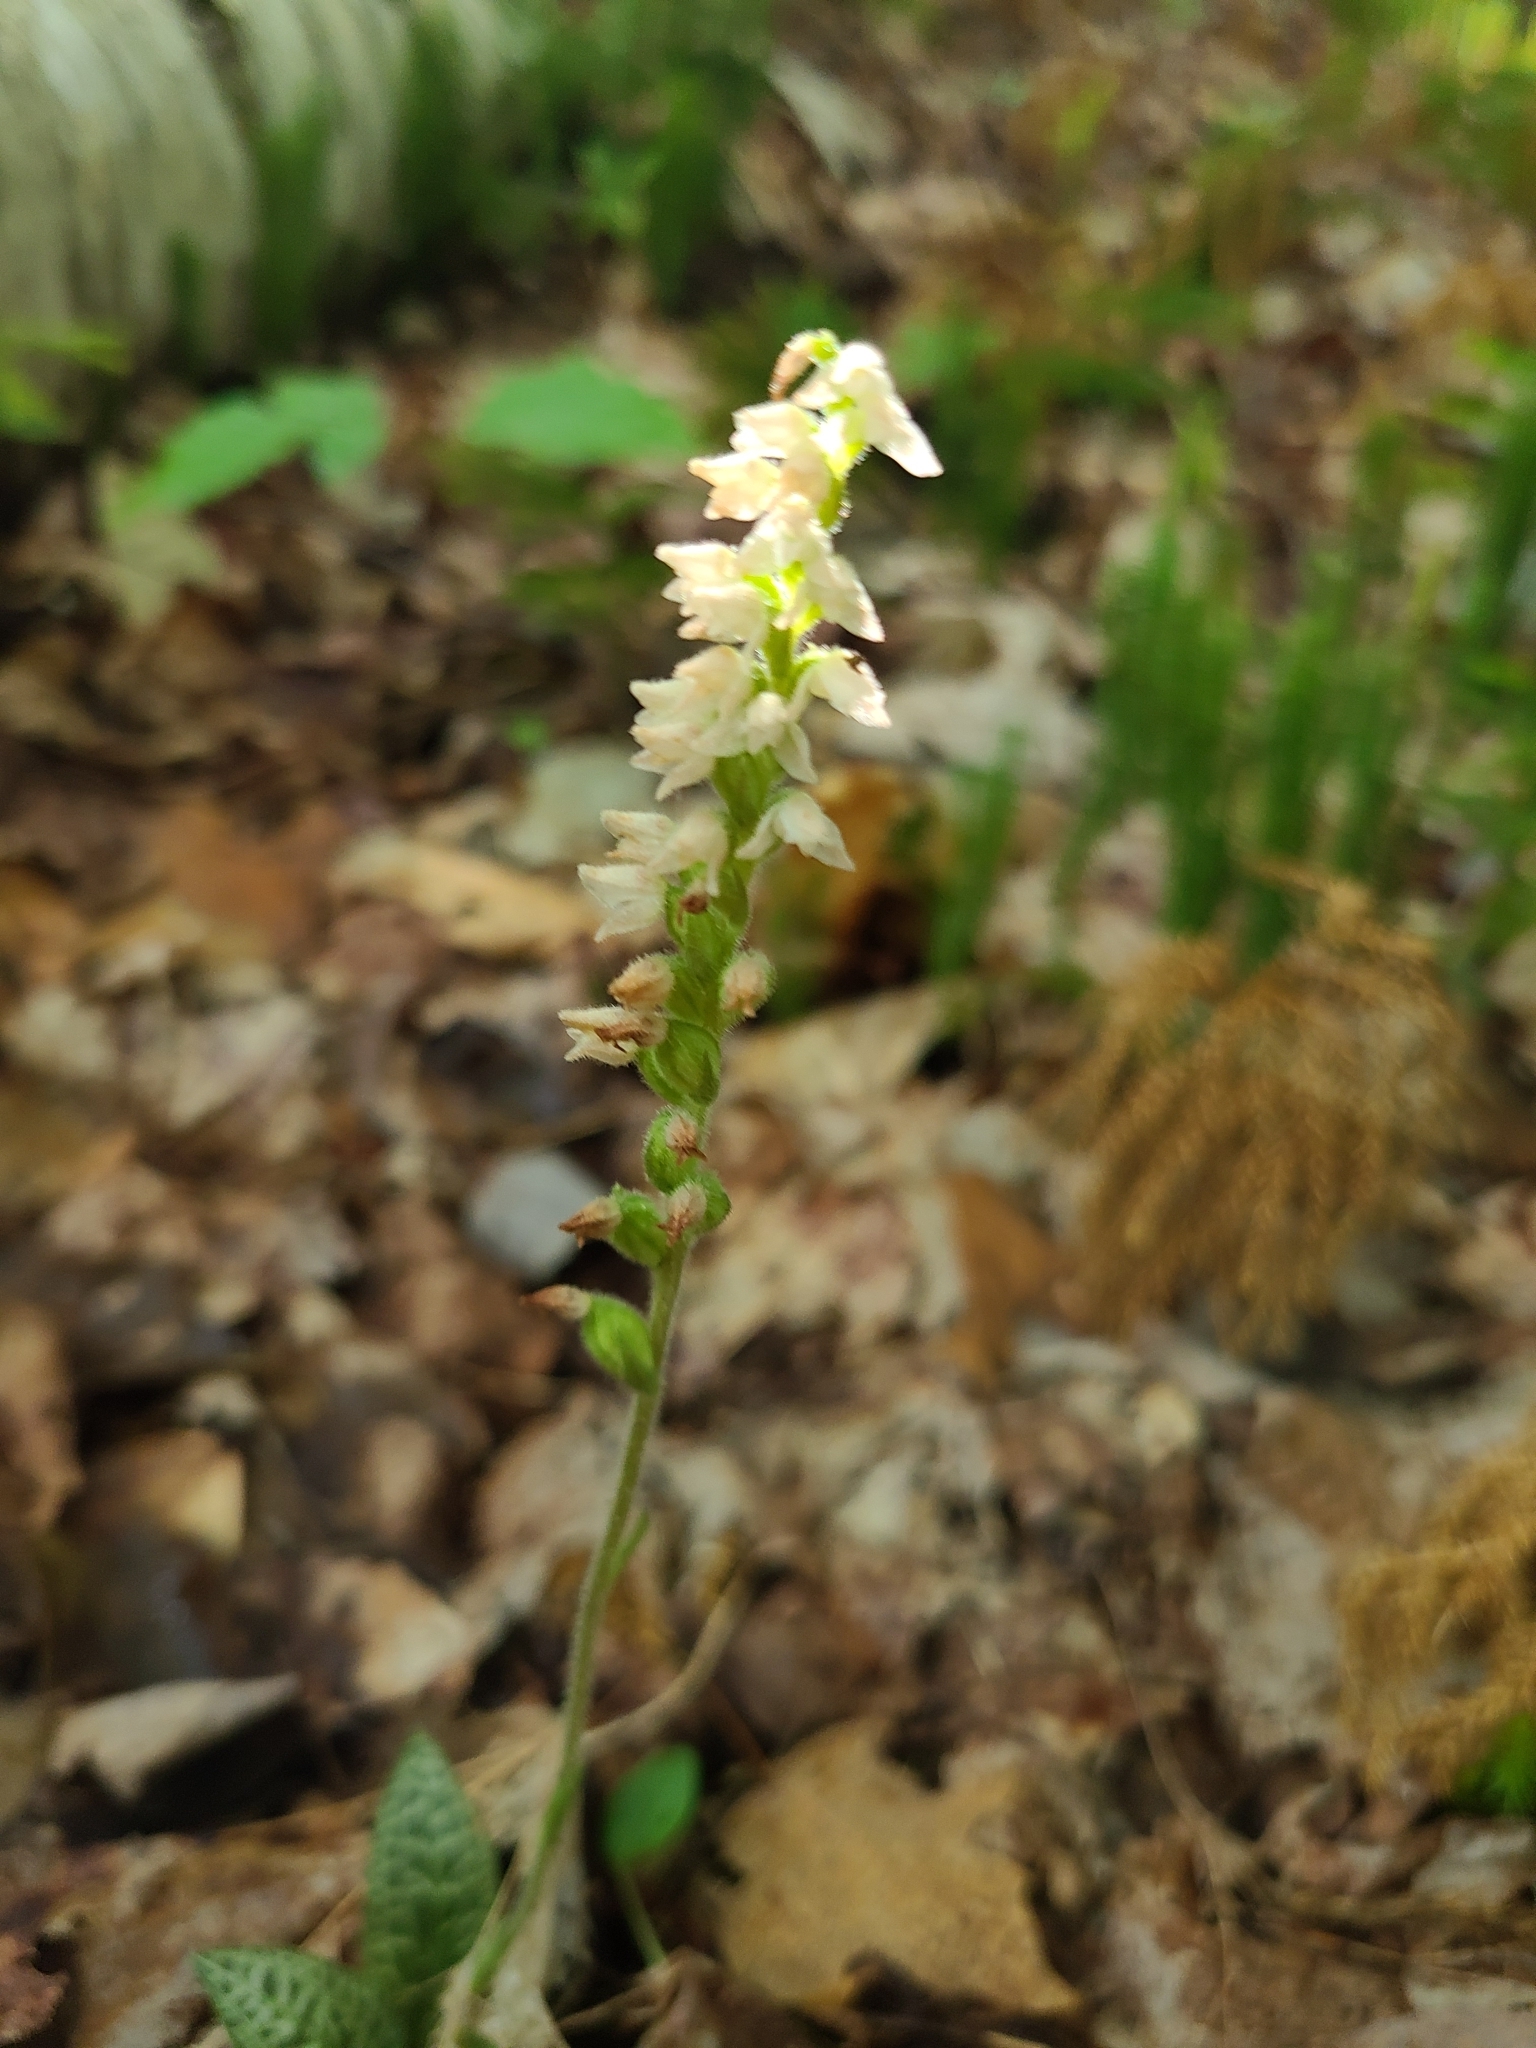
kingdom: Plantae
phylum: Tracheophyta
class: Liliopsida
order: Asparagales
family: Orchidaceae
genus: Goodyera
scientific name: Goodyera tesselata
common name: Checkered rattlesnake-plantain
